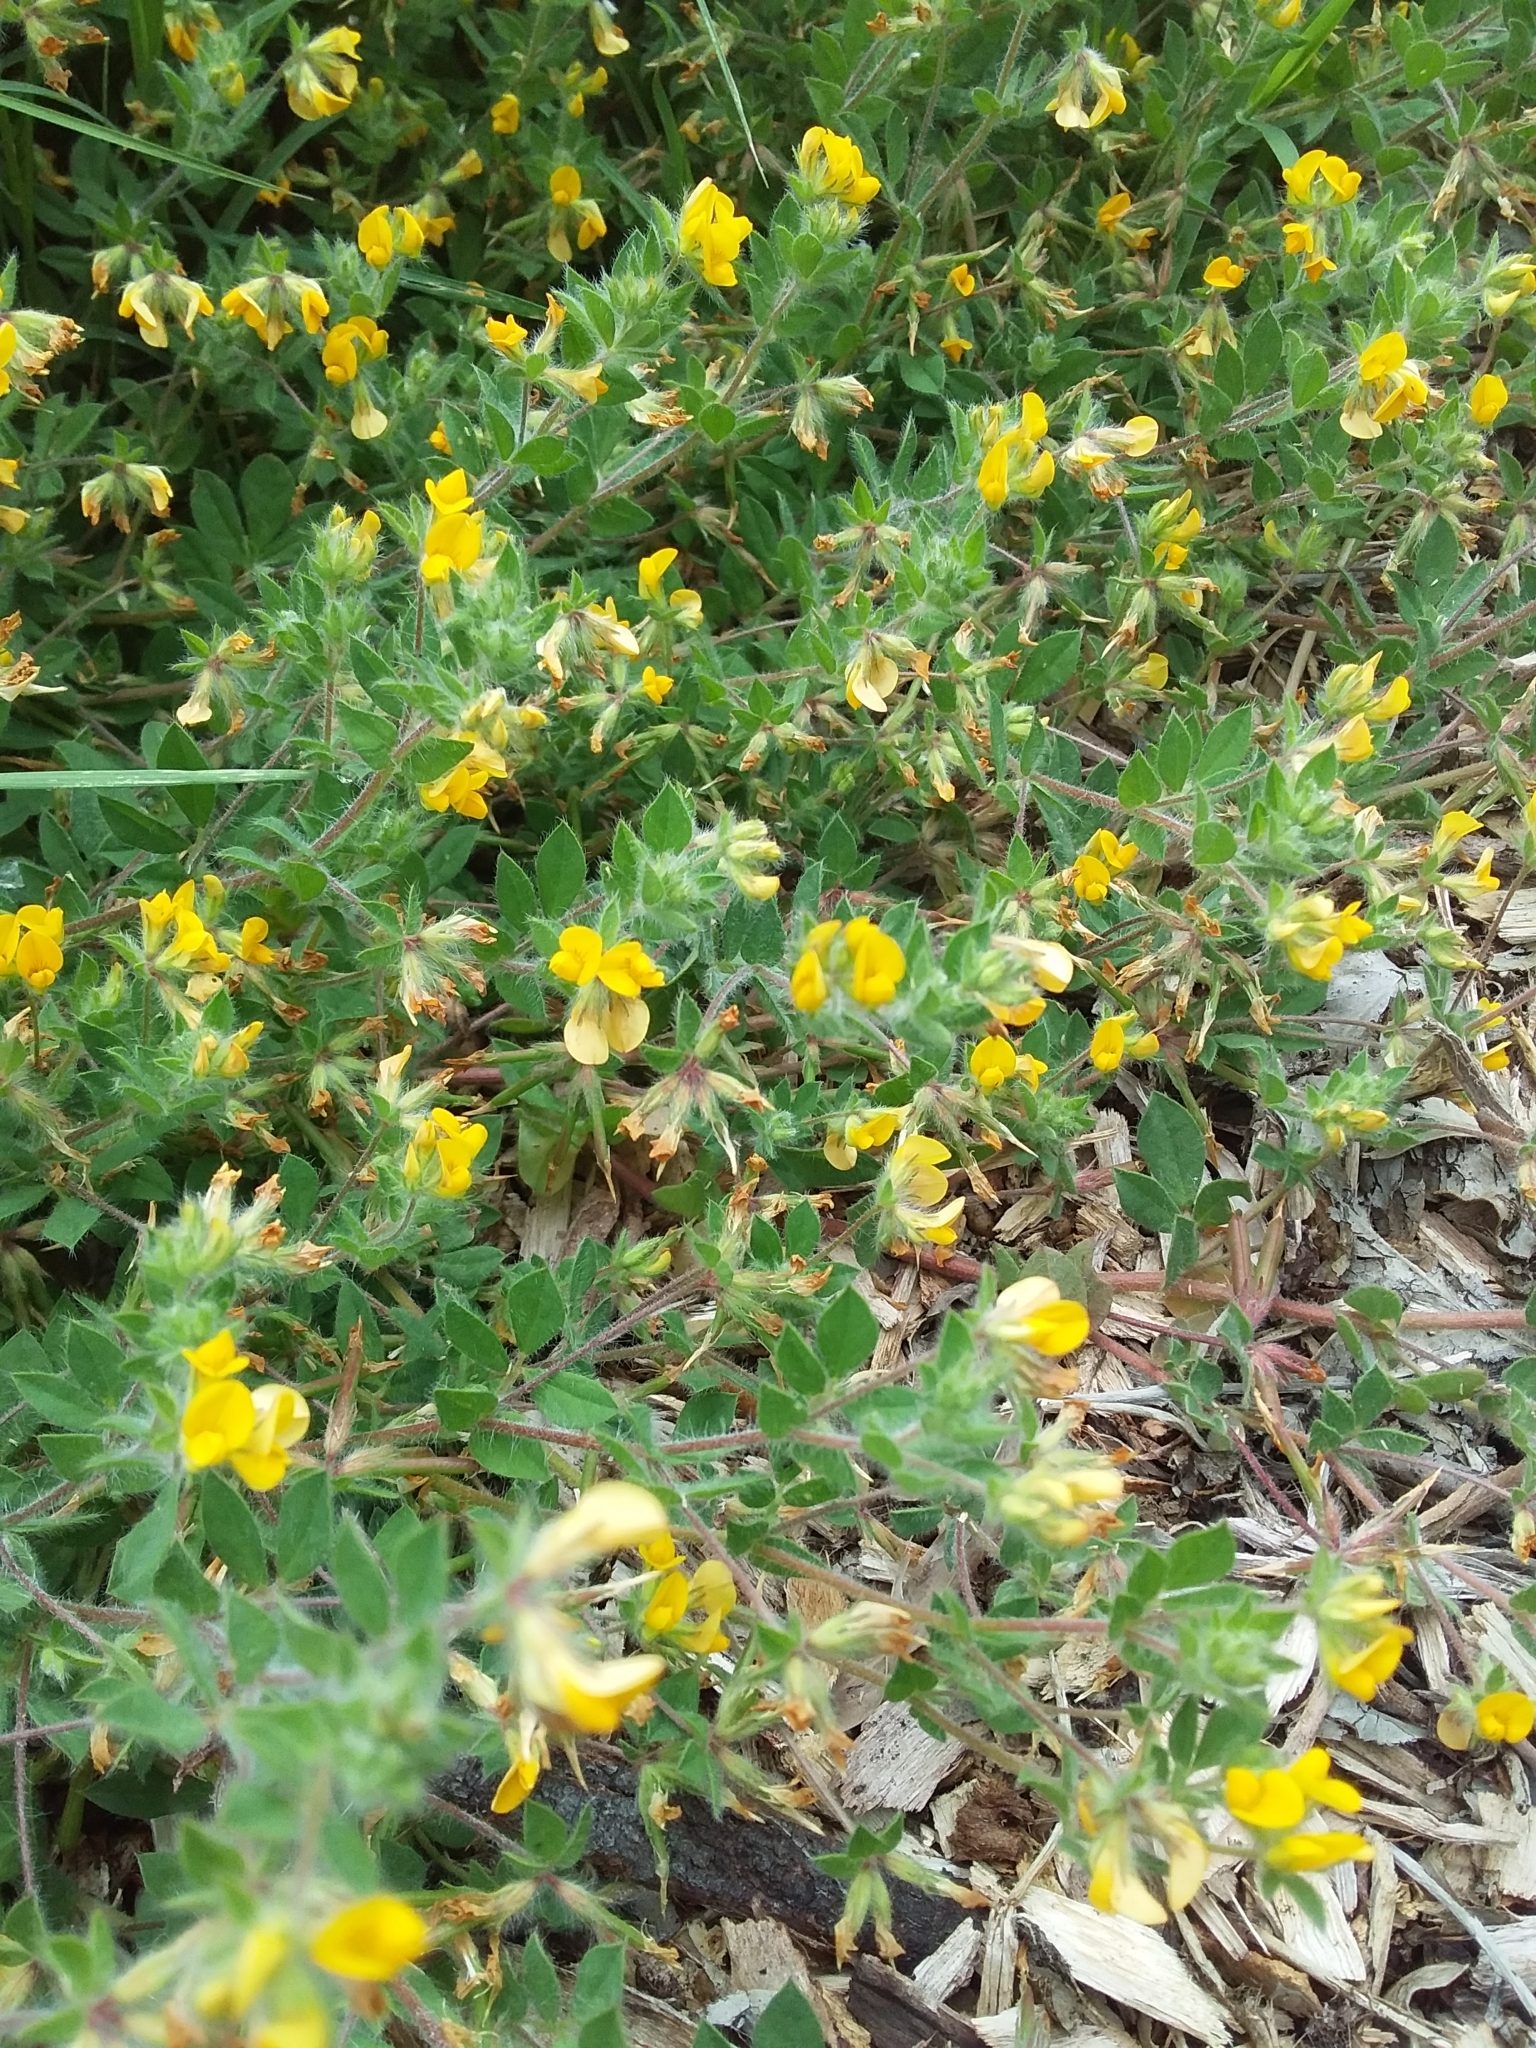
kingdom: Plantae
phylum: Tracheophyta
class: Magnoliopsida
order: Fabales
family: Fabaceae
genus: Lotus
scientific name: Lotus subbiflorus
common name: Hairy bird's-foot trefoil
